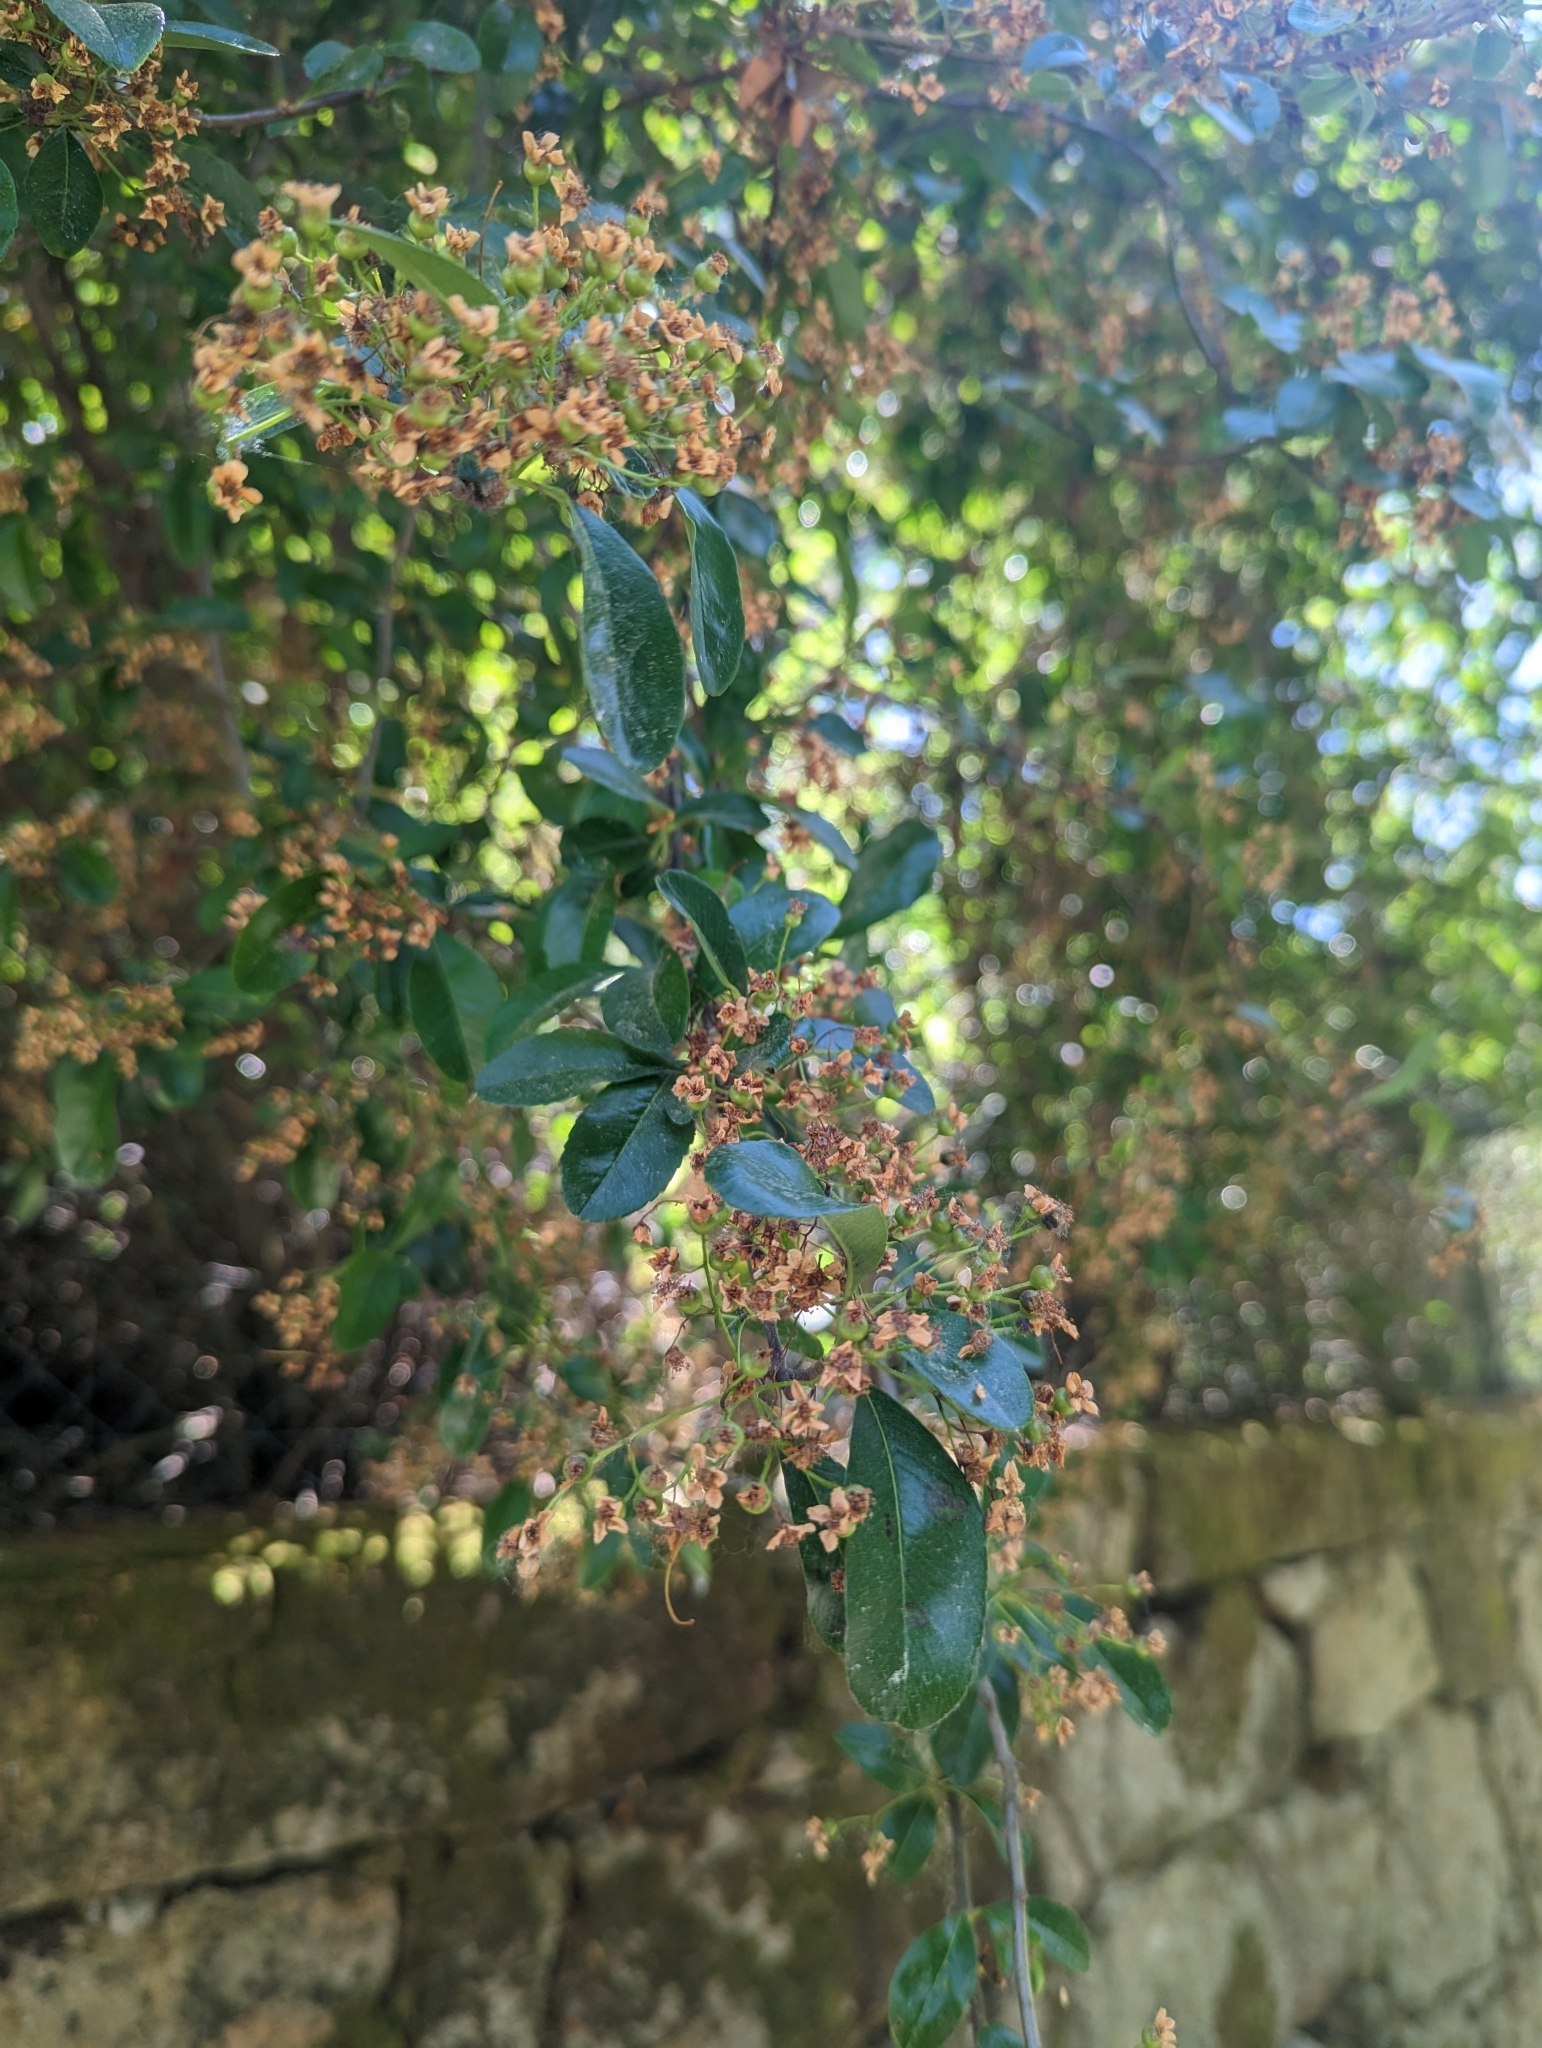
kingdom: Plantae
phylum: Tracheophyta
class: Magnoliopsida
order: Rosales
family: Rosaceae
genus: Pyracantha
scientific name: Pyracantha coccinea
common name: Firethorn
